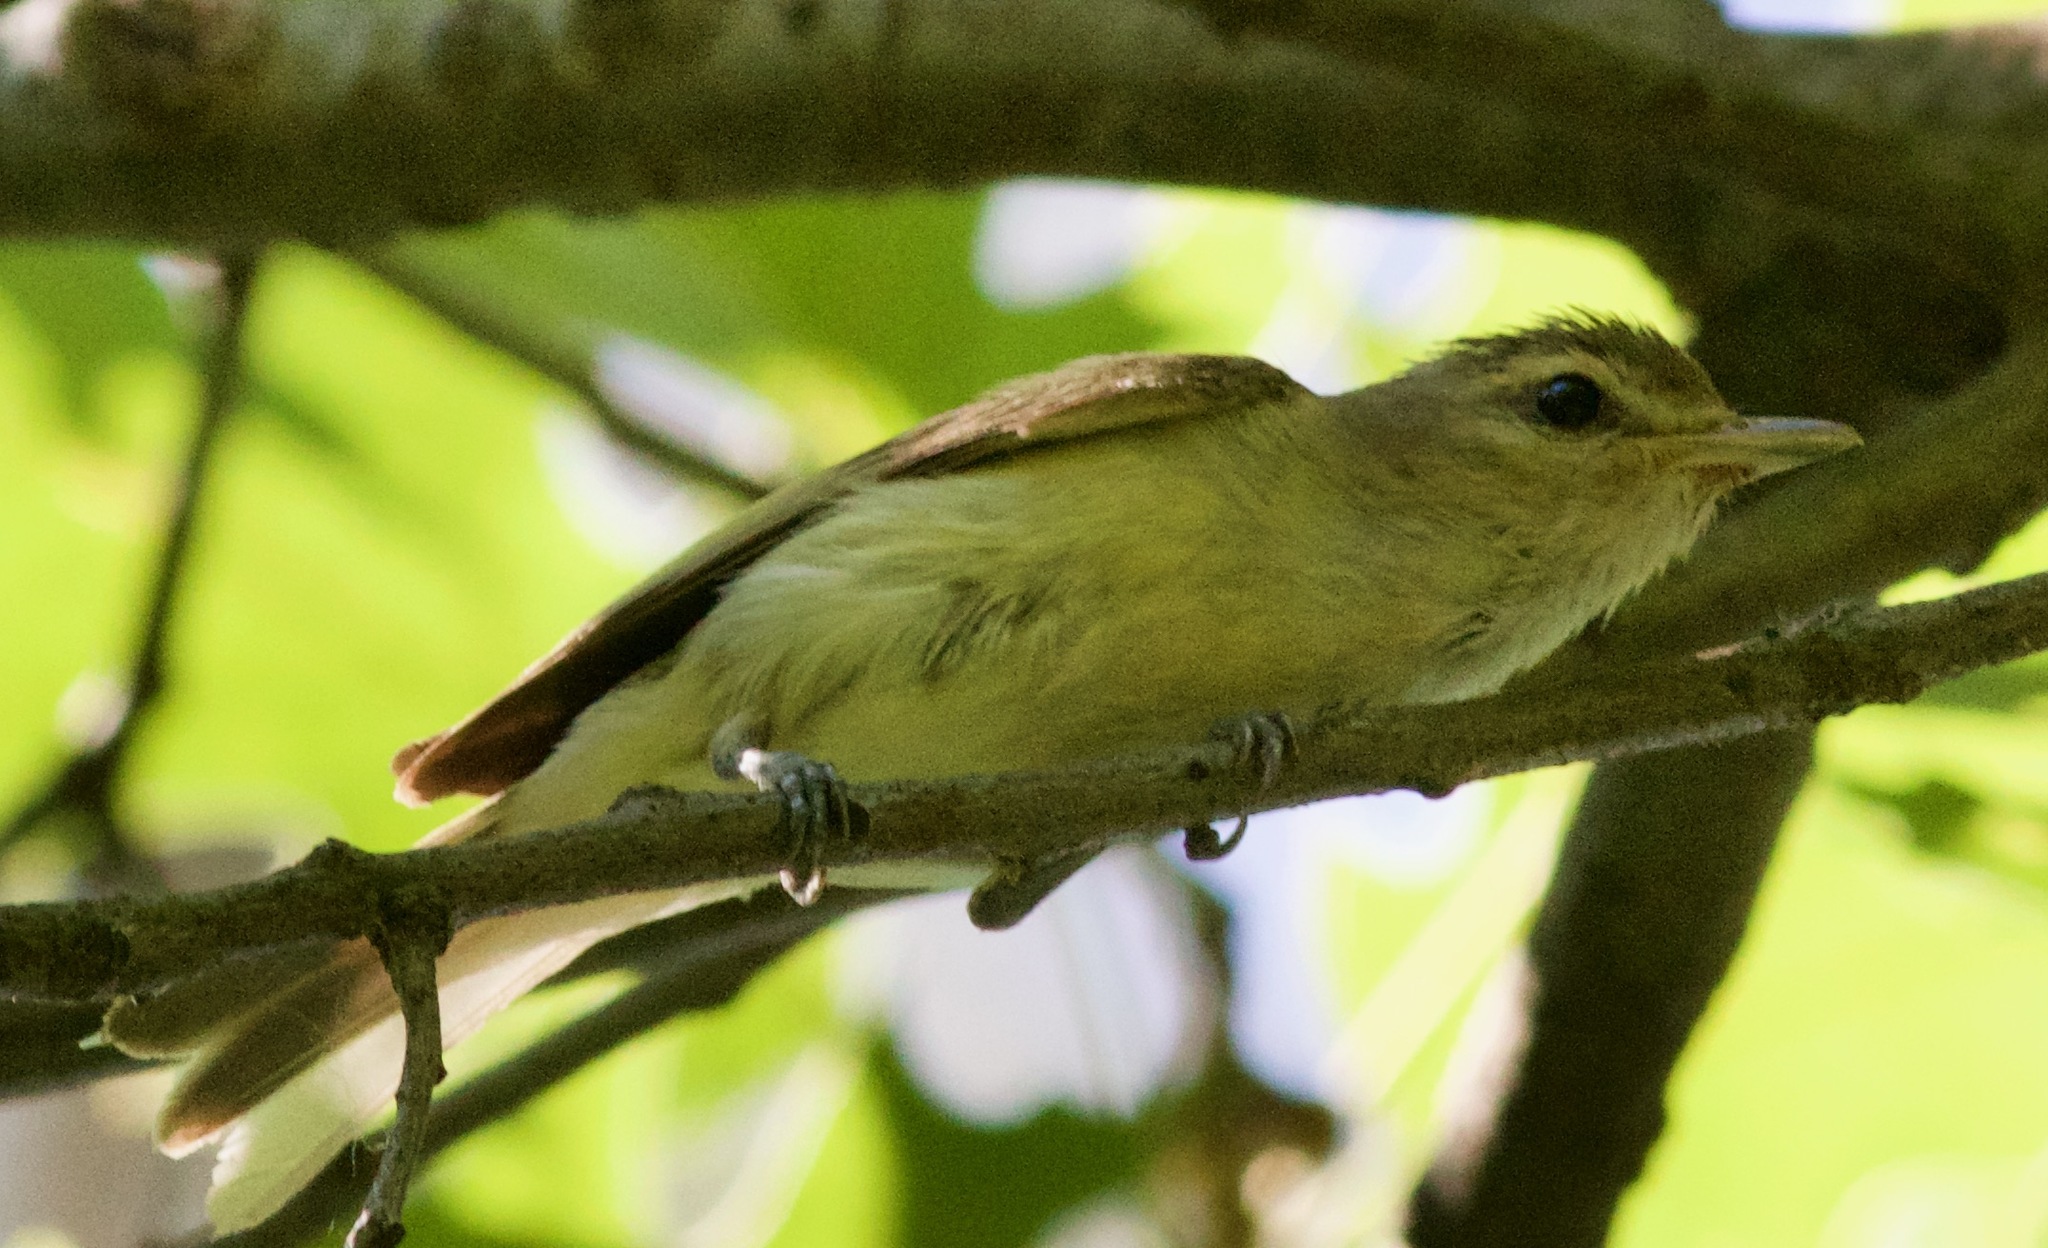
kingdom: Animalia
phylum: Chordata
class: Aves
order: Passeriformes
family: Vireonidae
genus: Vireo
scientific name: Vireo gilvus
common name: Warbling vireo
